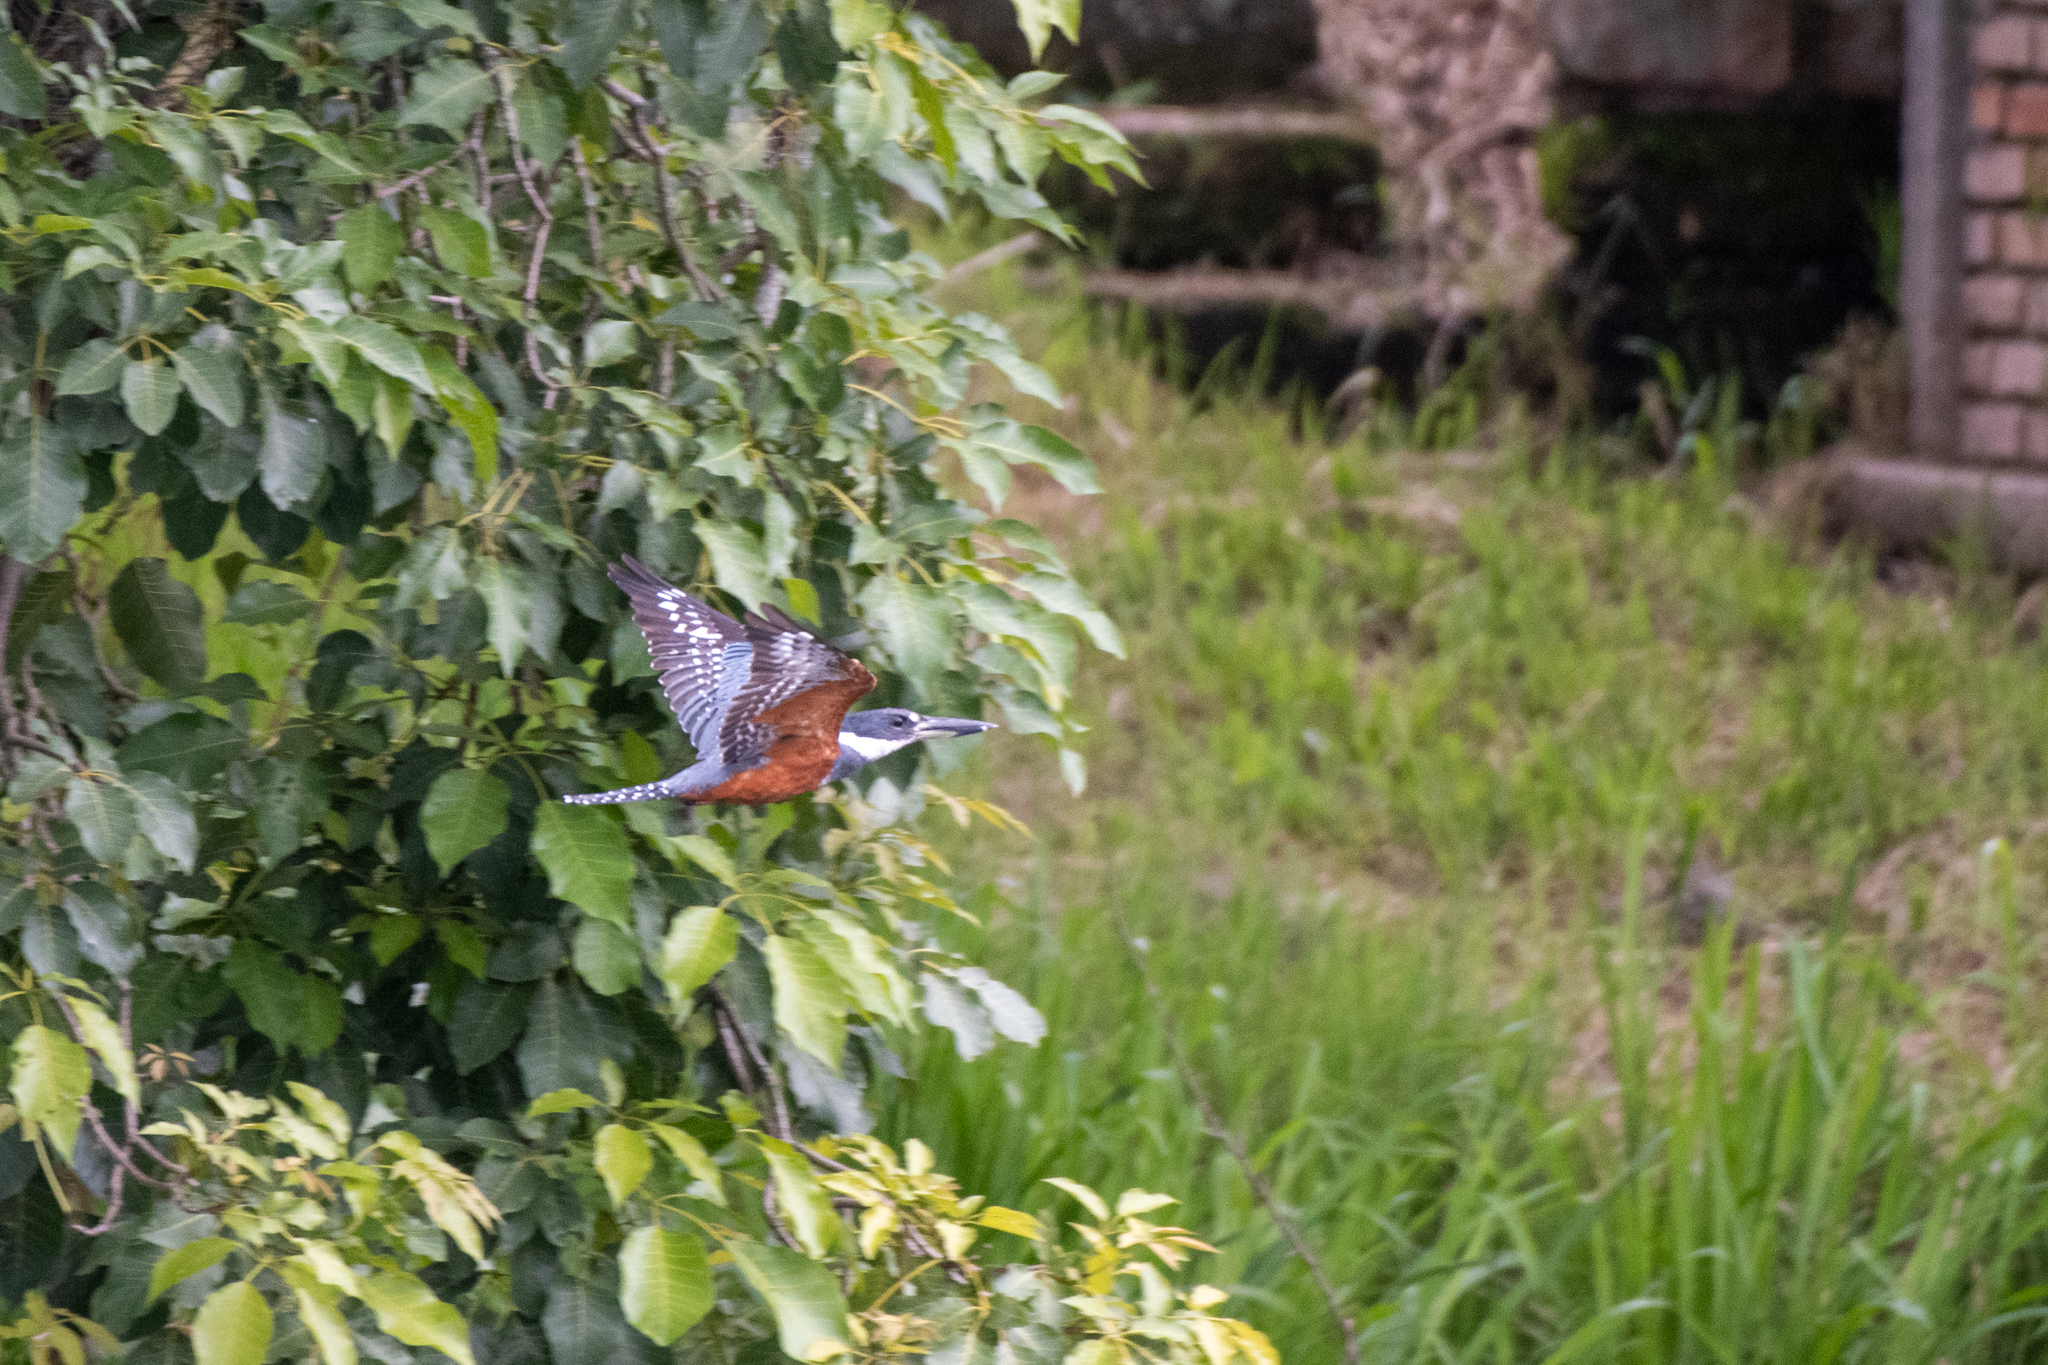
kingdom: Animalia
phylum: Chordata
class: Aves
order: Coraciiformes
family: Alcedinidae
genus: Megaceryle
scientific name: Megaceryle torquata
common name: Ringed kingfisher
